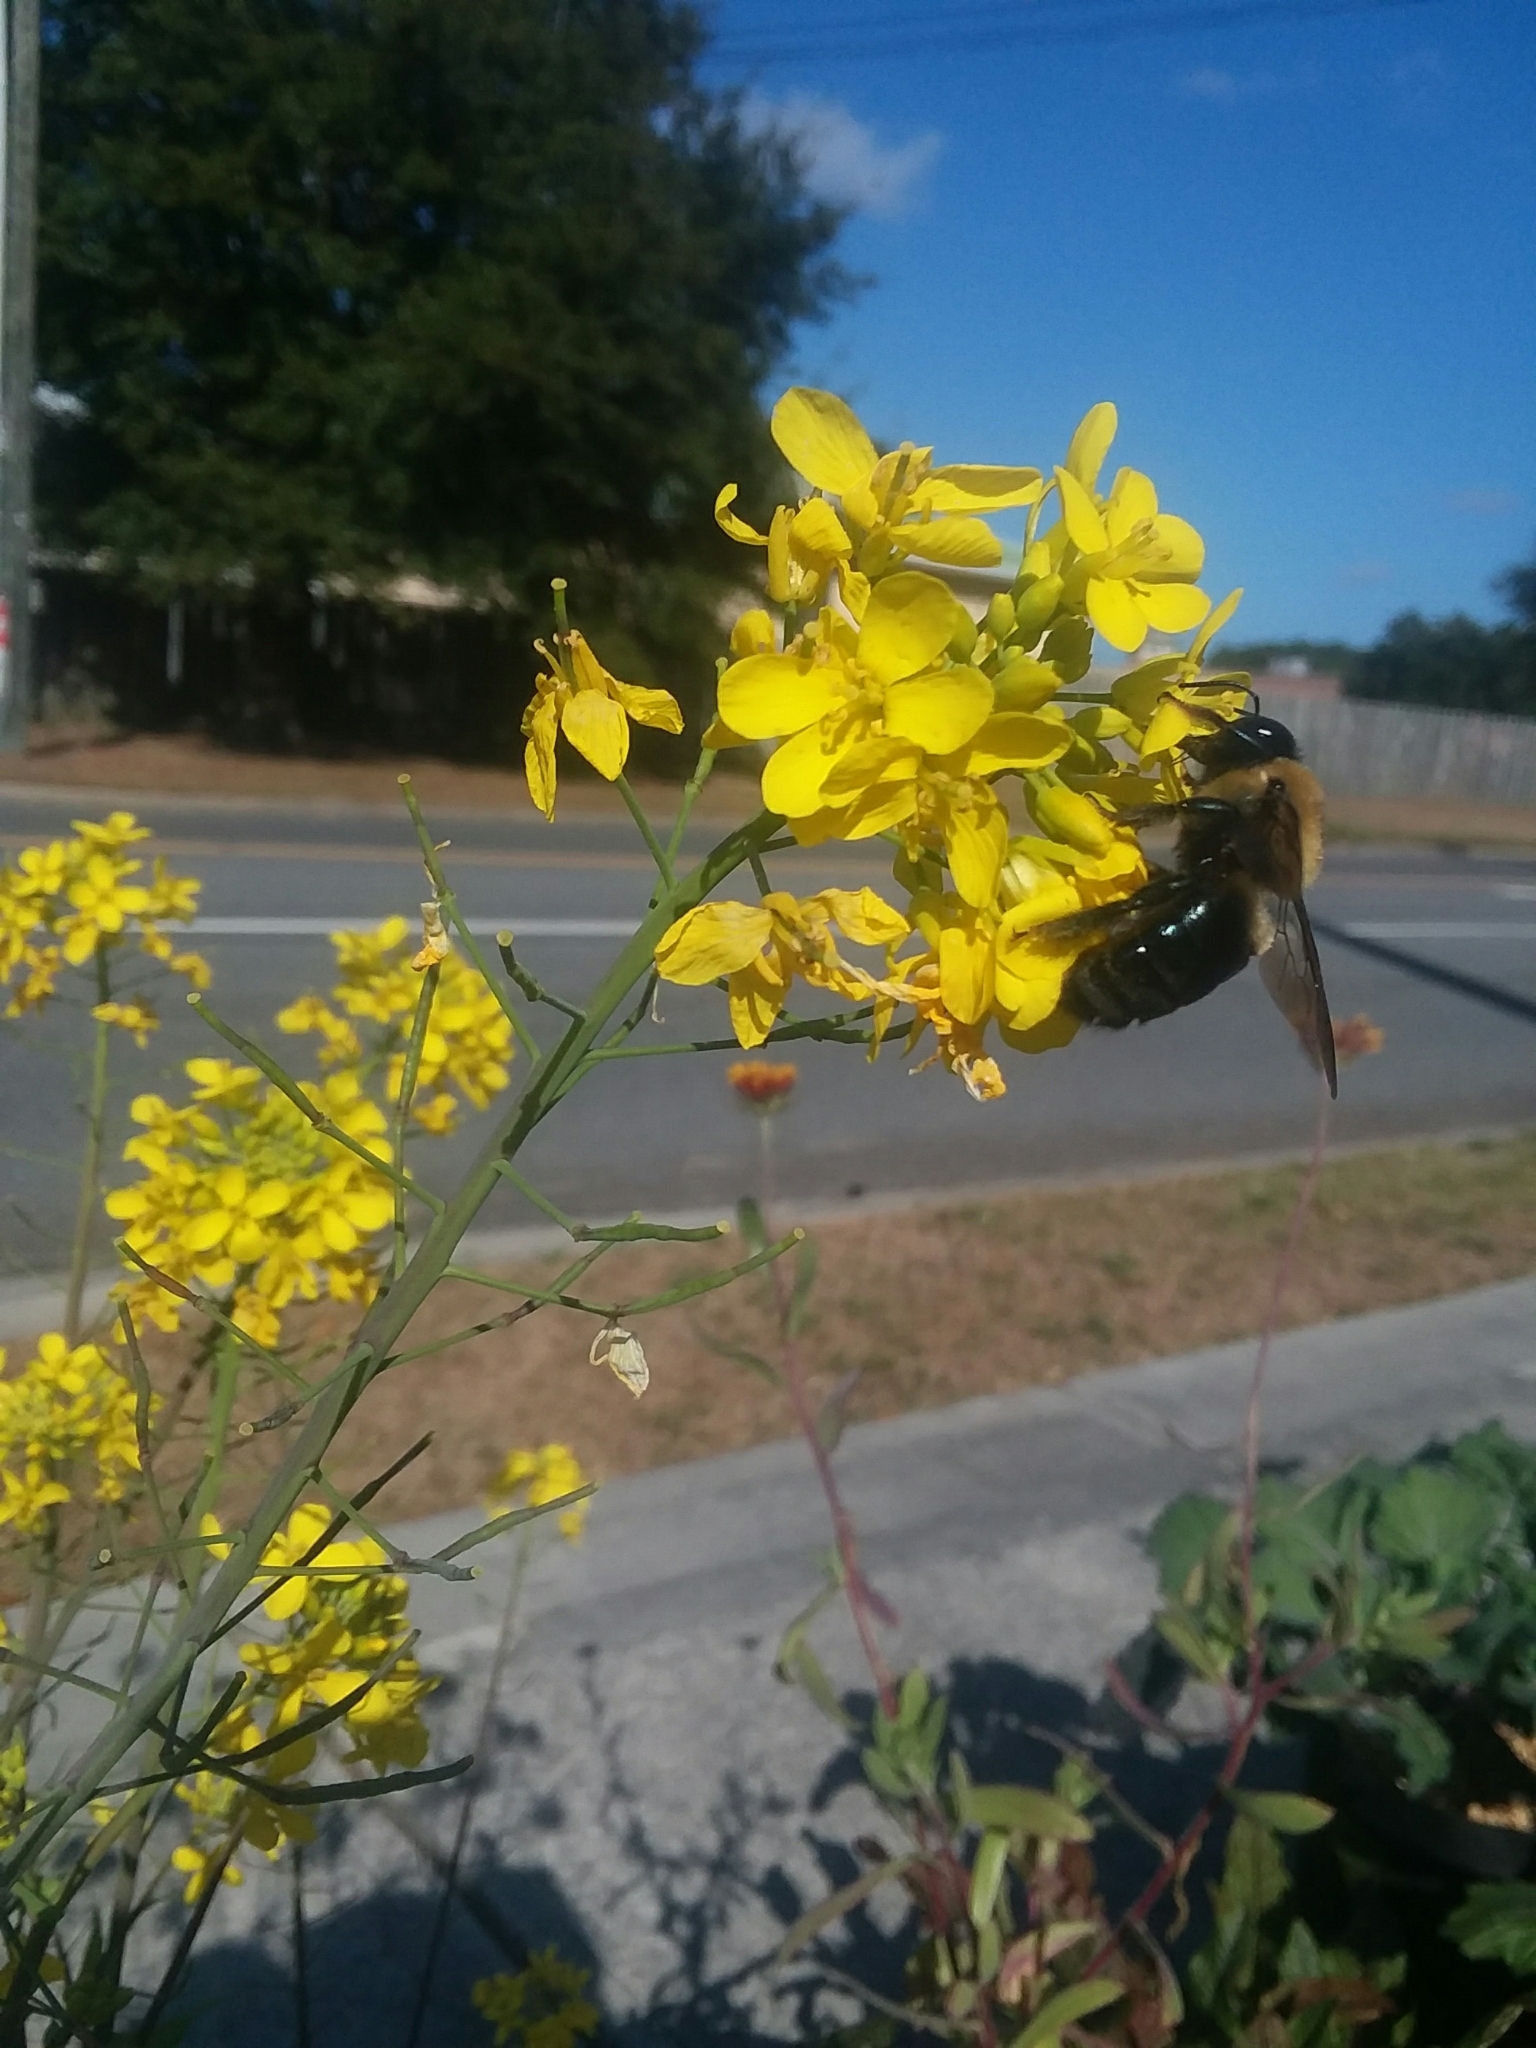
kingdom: Animalia
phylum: Arthropoda
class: Insecta
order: Hymenoptera
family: Apidae
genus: Xylocopa
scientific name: Xylocopa virginica
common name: Carpenter bee
